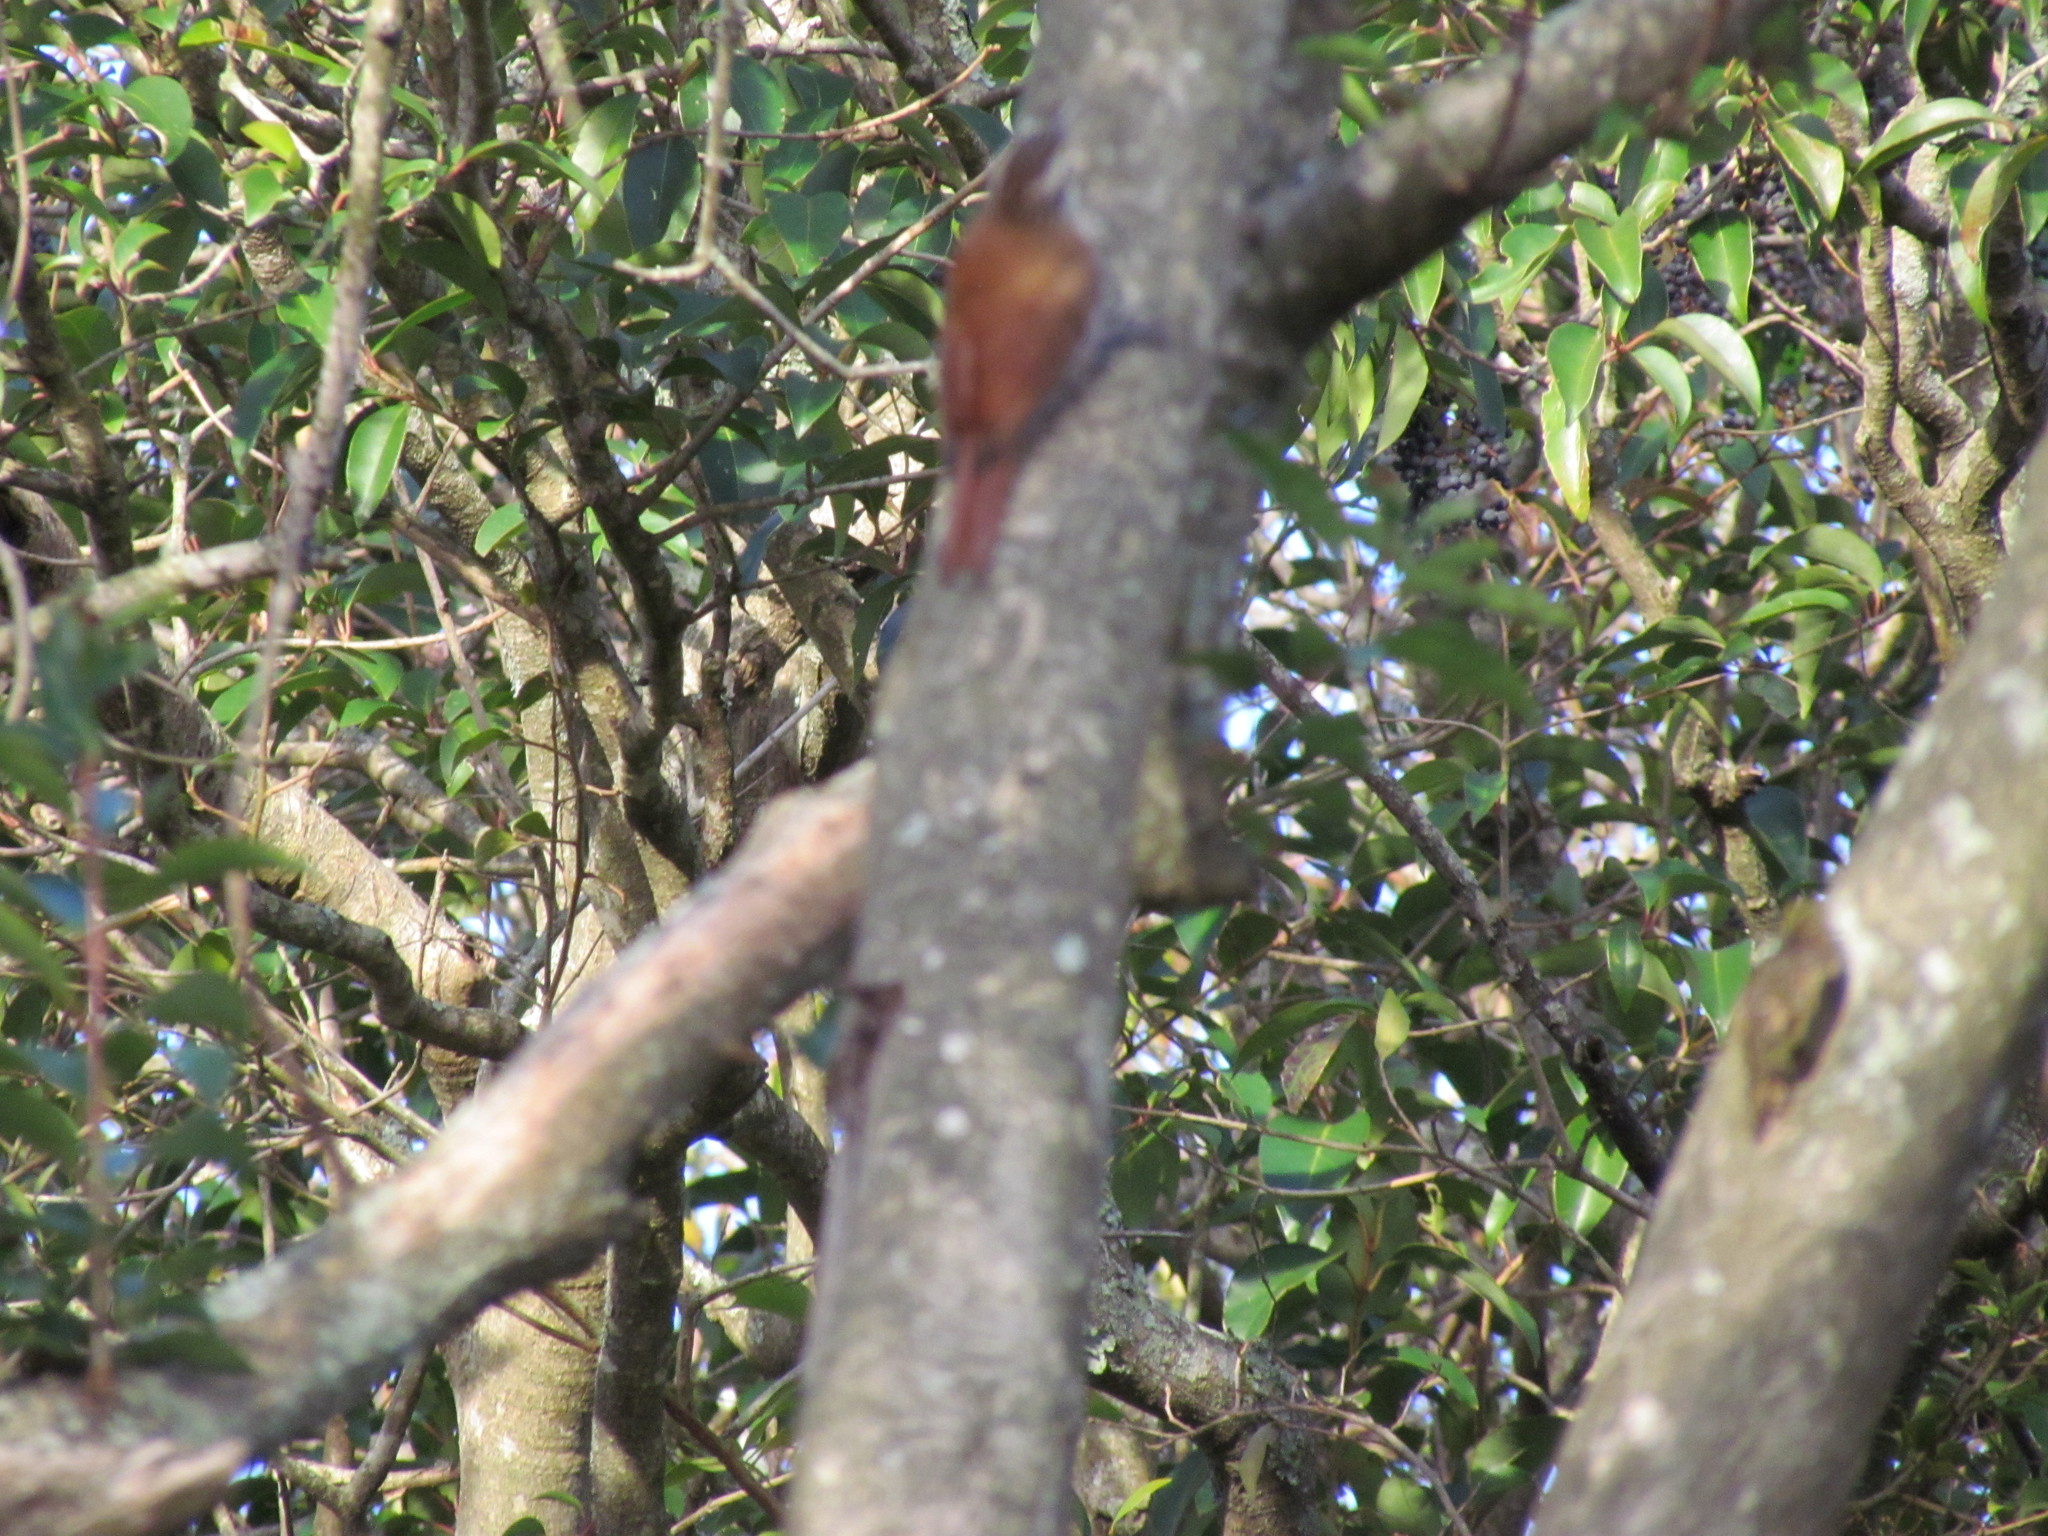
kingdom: Animalia
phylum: Chordata
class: Aves
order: Passeriformes
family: Furnariidae
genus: Lepidocolaptes
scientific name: Lepidocolaptes angustirostris
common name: Narrow-billed woodcreeper
